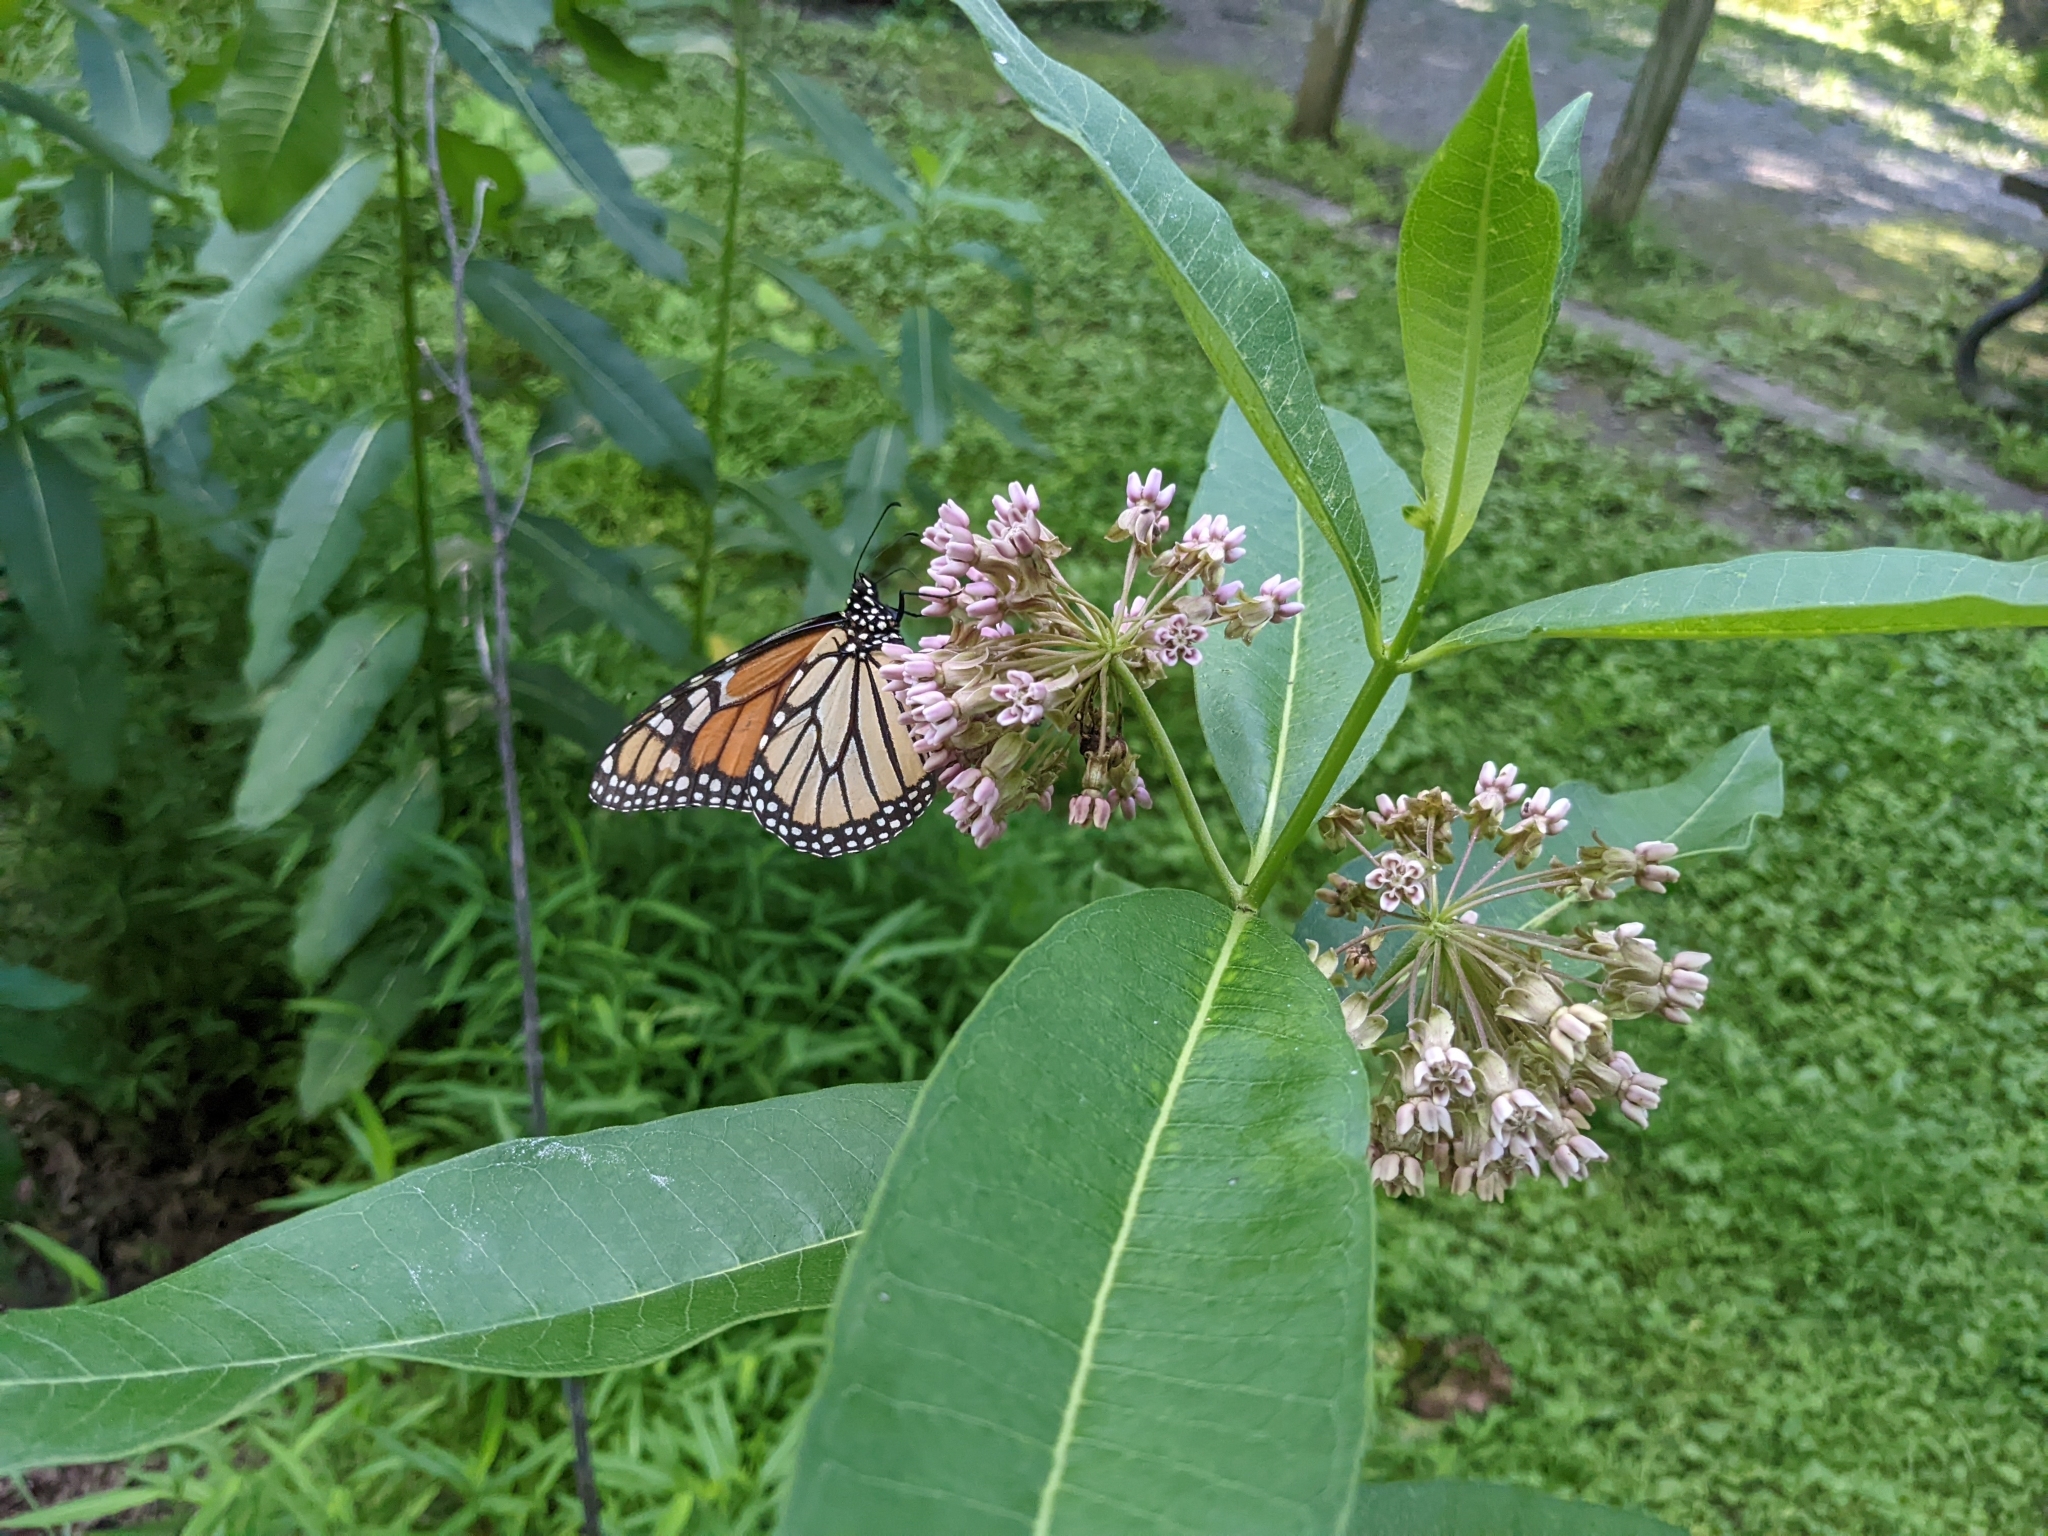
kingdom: Animalia
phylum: Arthropoda
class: Insecta
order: Lepidoptera
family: Nymphalidae
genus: Danaus
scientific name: Danaus plexippus
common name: Monarch
